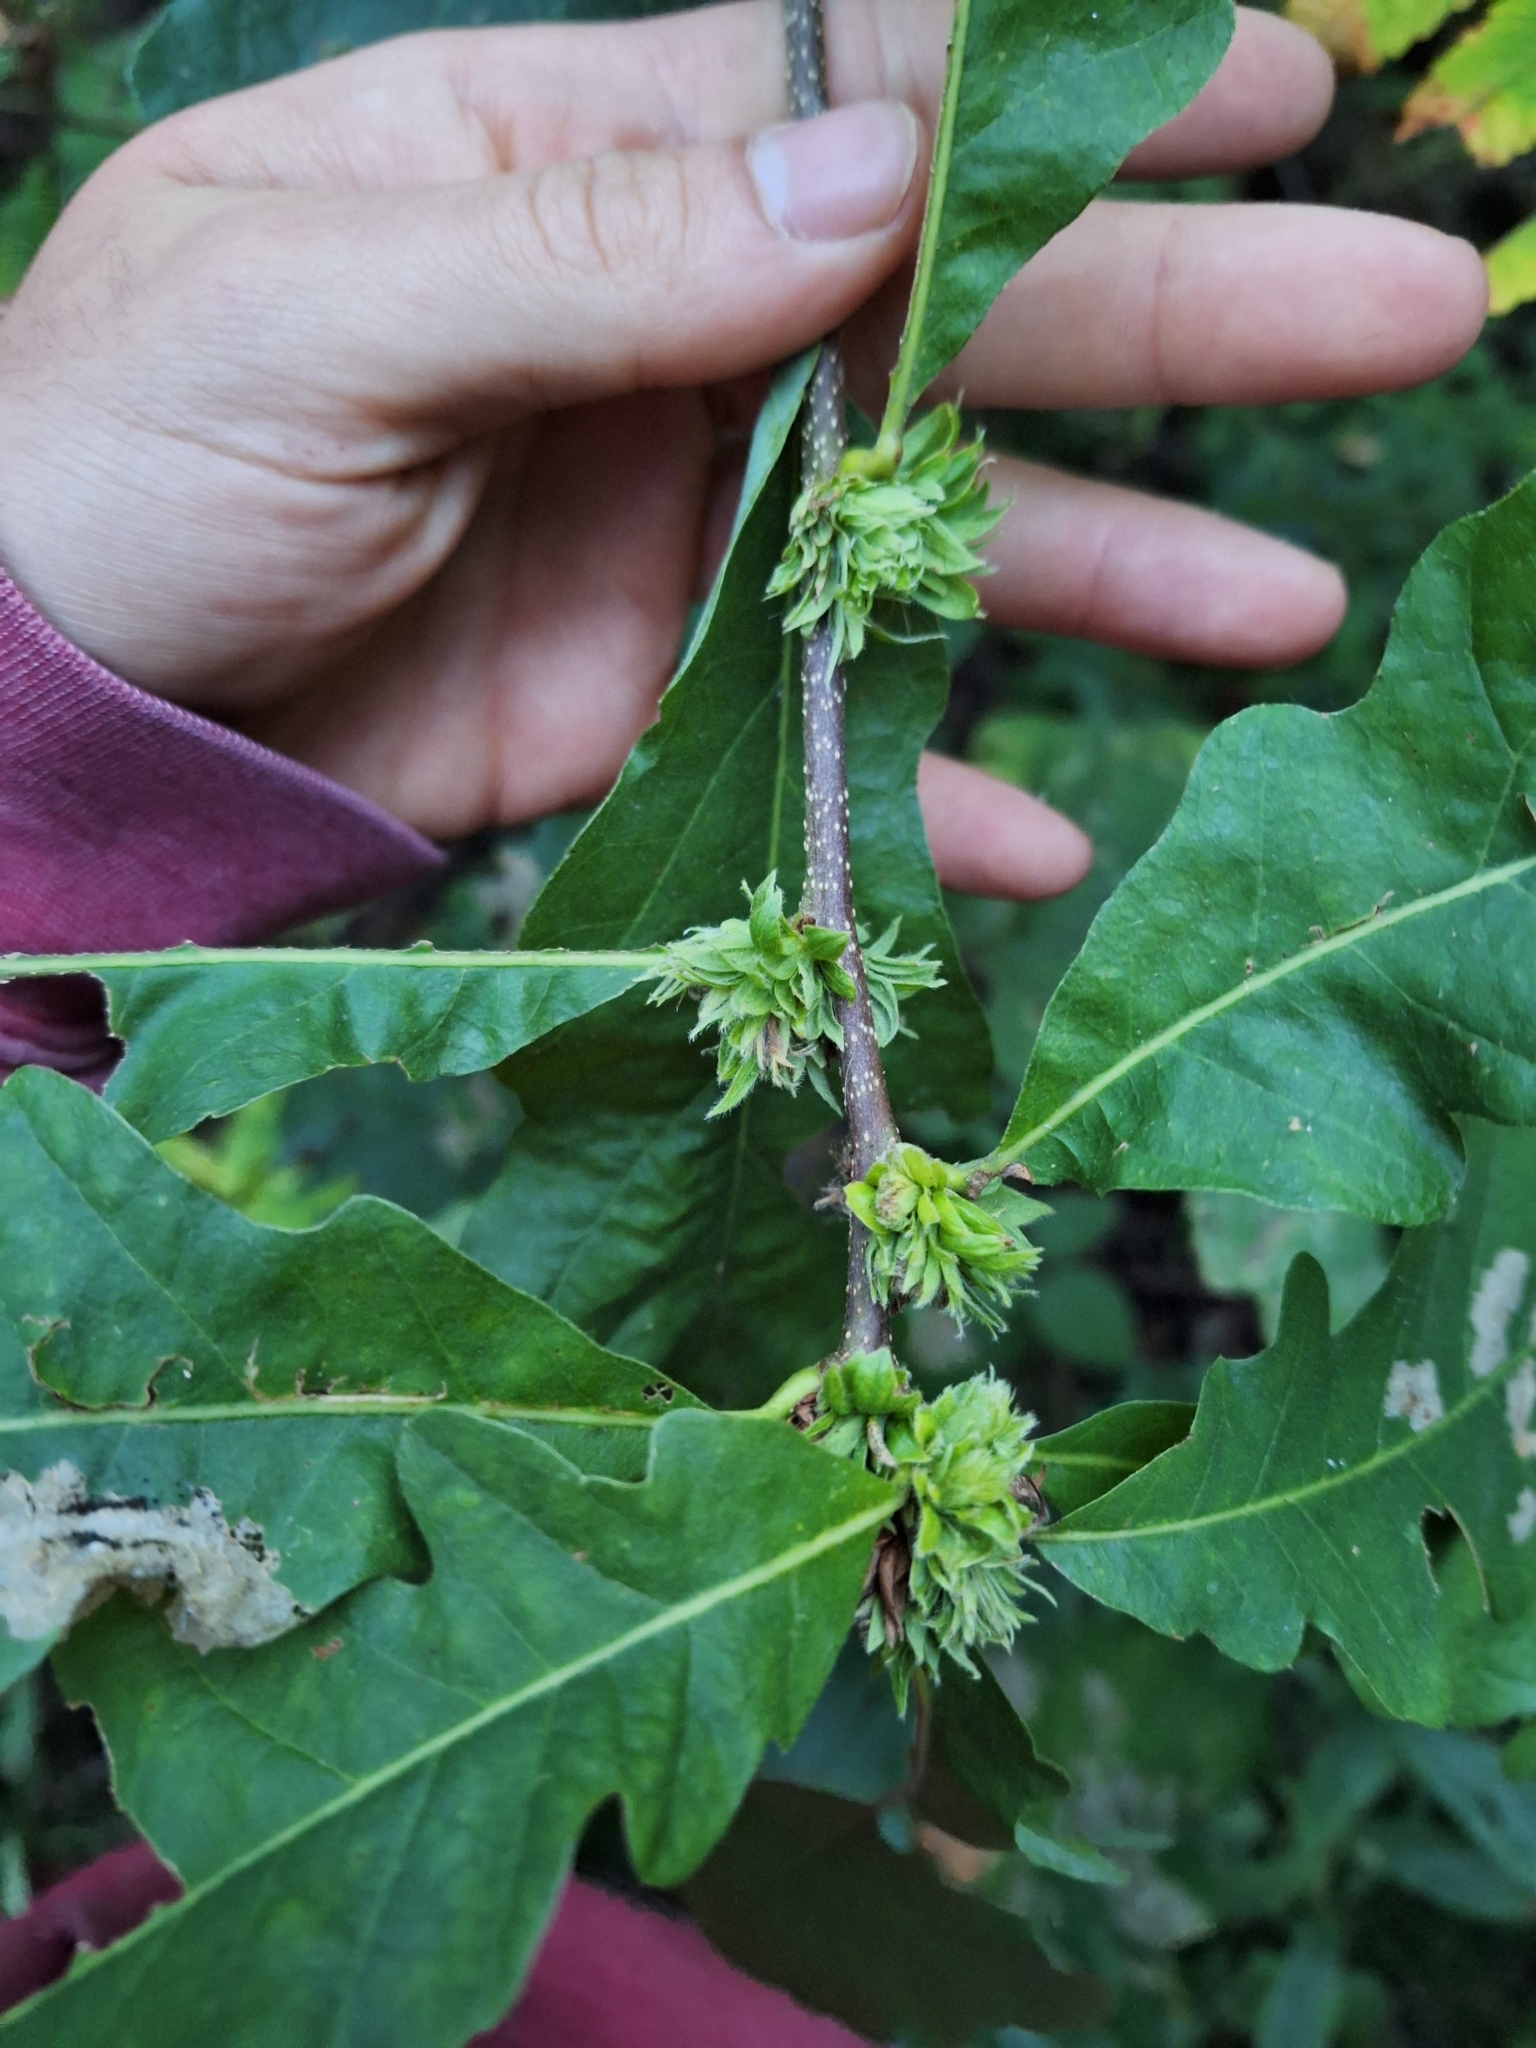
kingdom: Animalia
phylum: Arthropoda
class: Insecta
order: Hymenoptera
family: Cynipidae
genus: Andricus
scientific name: Andricus
